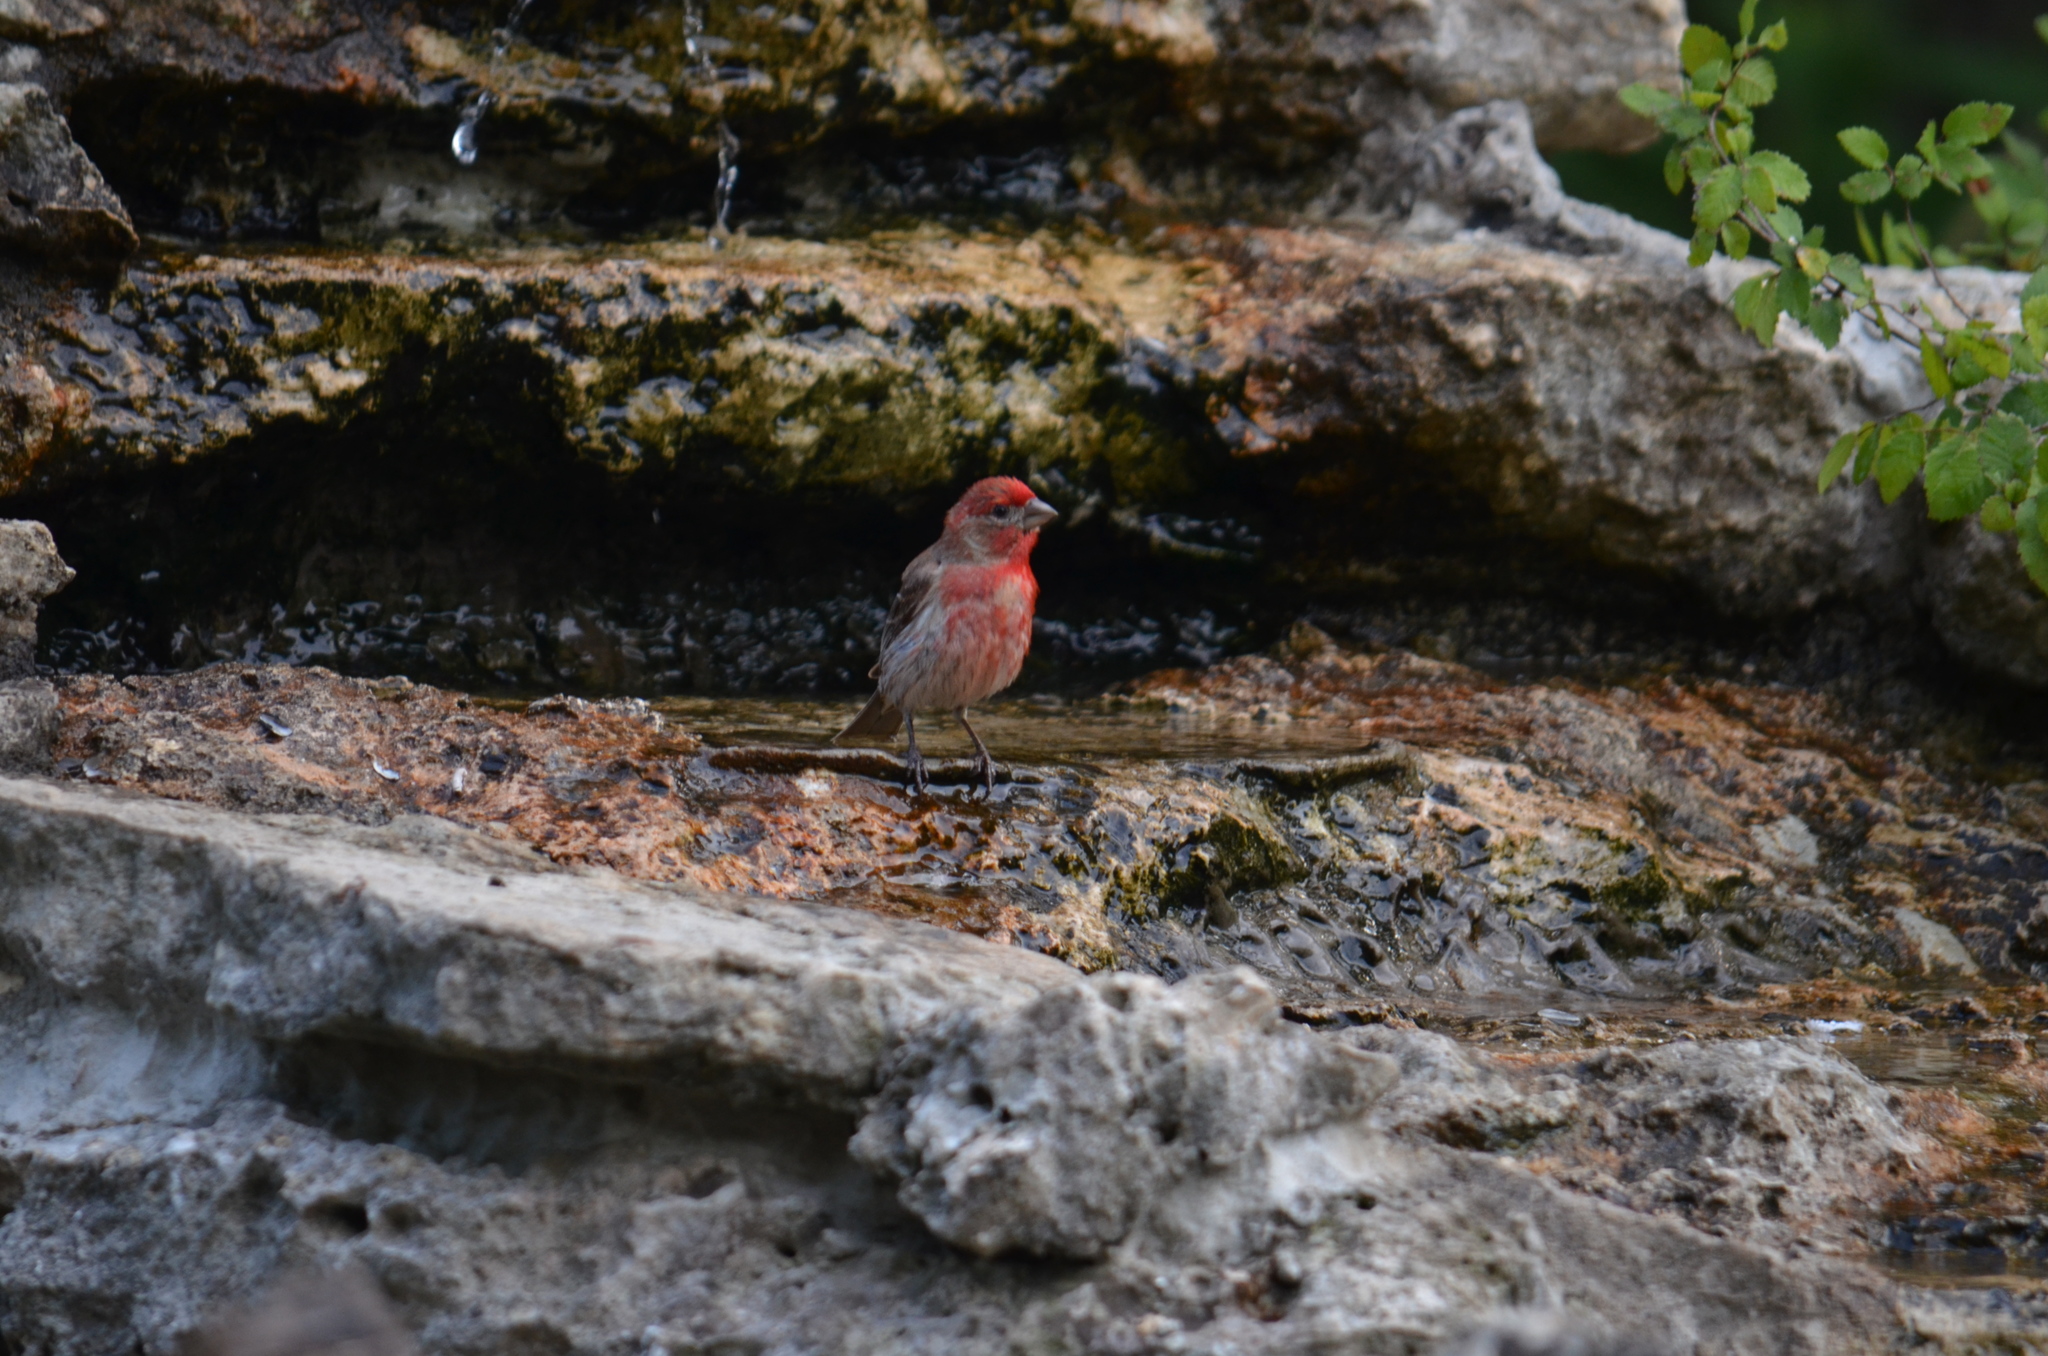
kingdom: Animalia
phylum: Chordata
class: Aves
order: Passeriformes
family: Fringillidae
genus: Haemorhous
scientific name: Haemorhous mexicanus
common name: House finch
